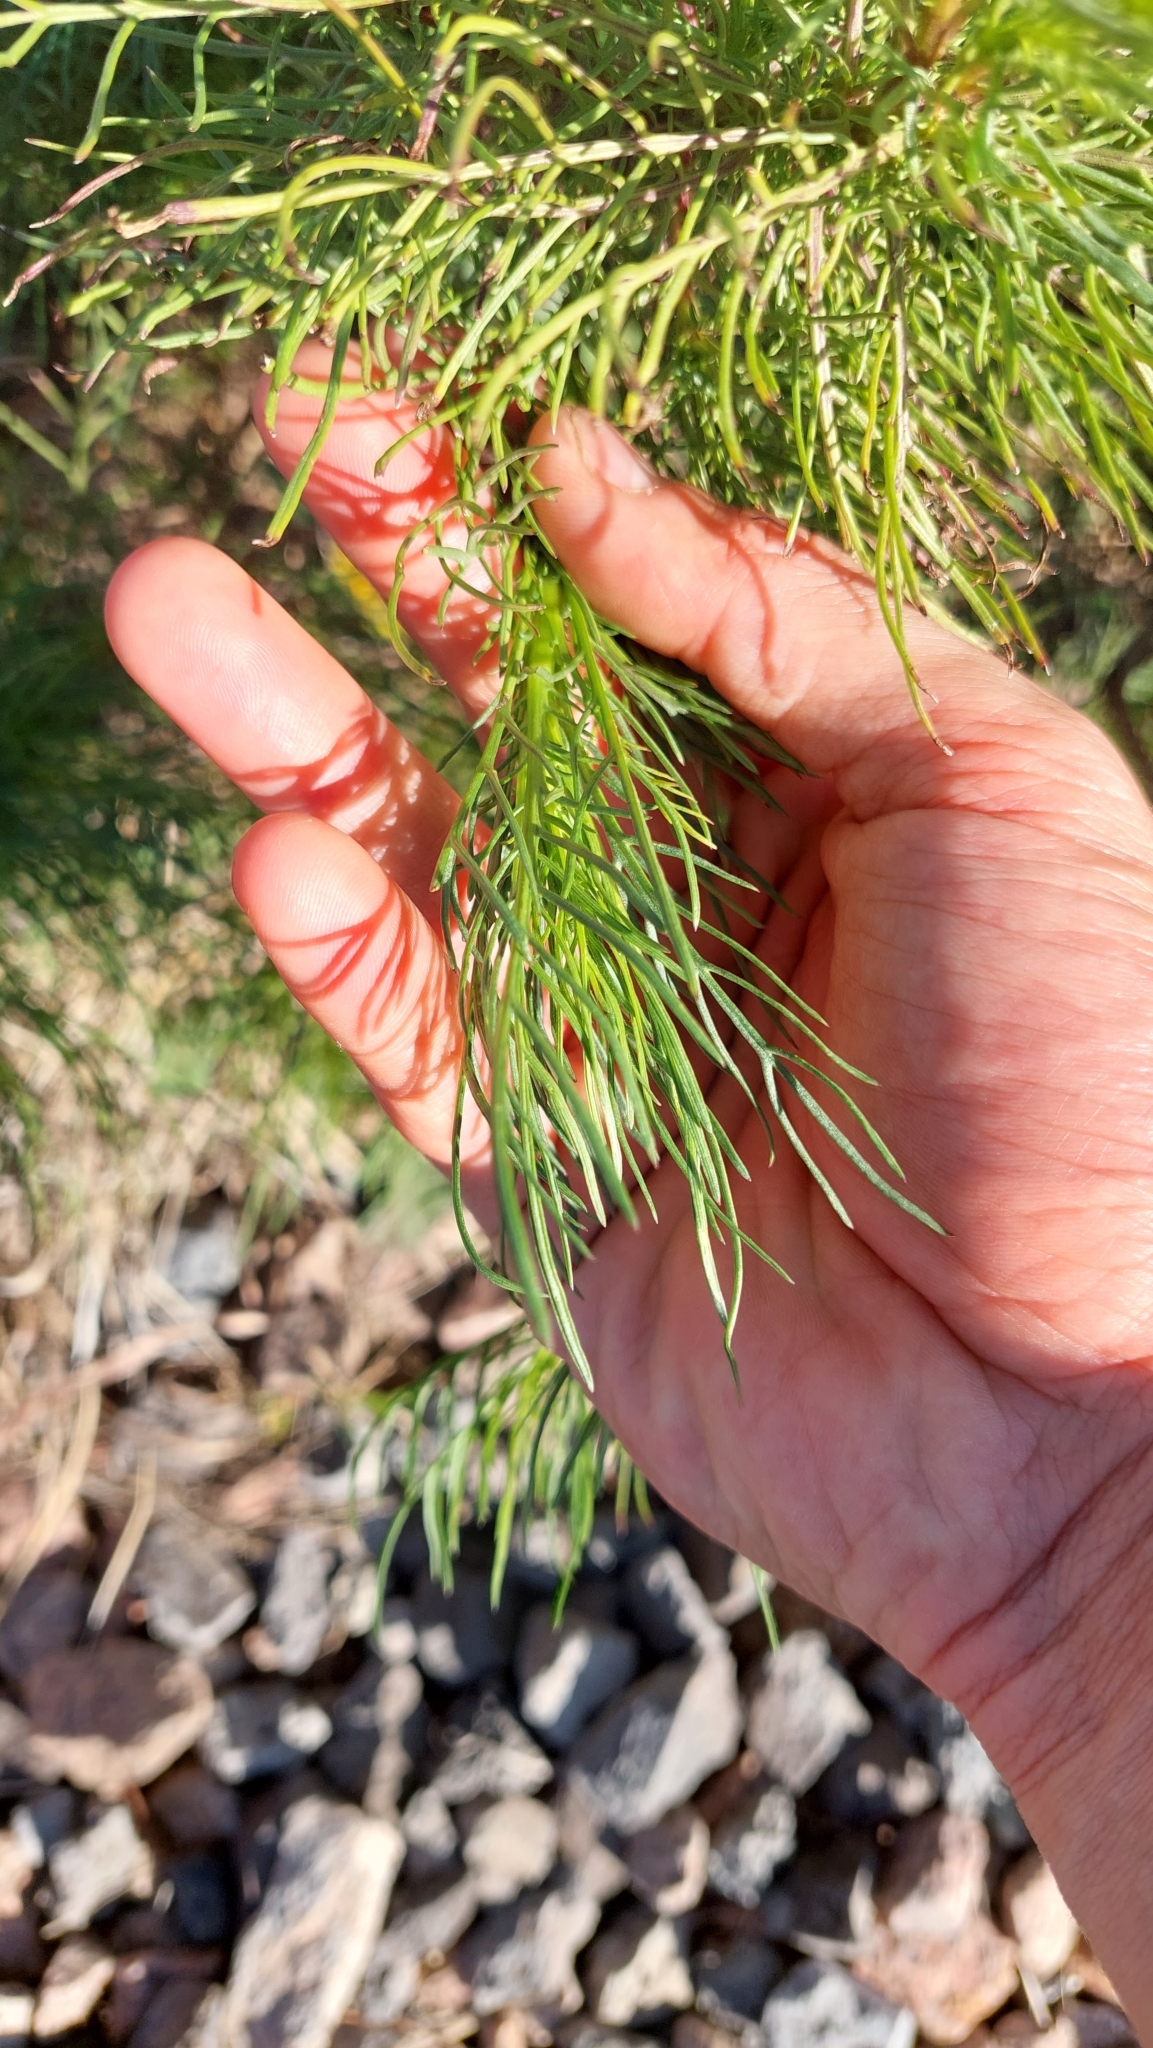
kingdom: Plantae
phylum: Tracheophyta
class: Magnoliopsida
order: Asterales
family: Asteraceae
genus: Senecio
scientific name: Senecio pampeanus
